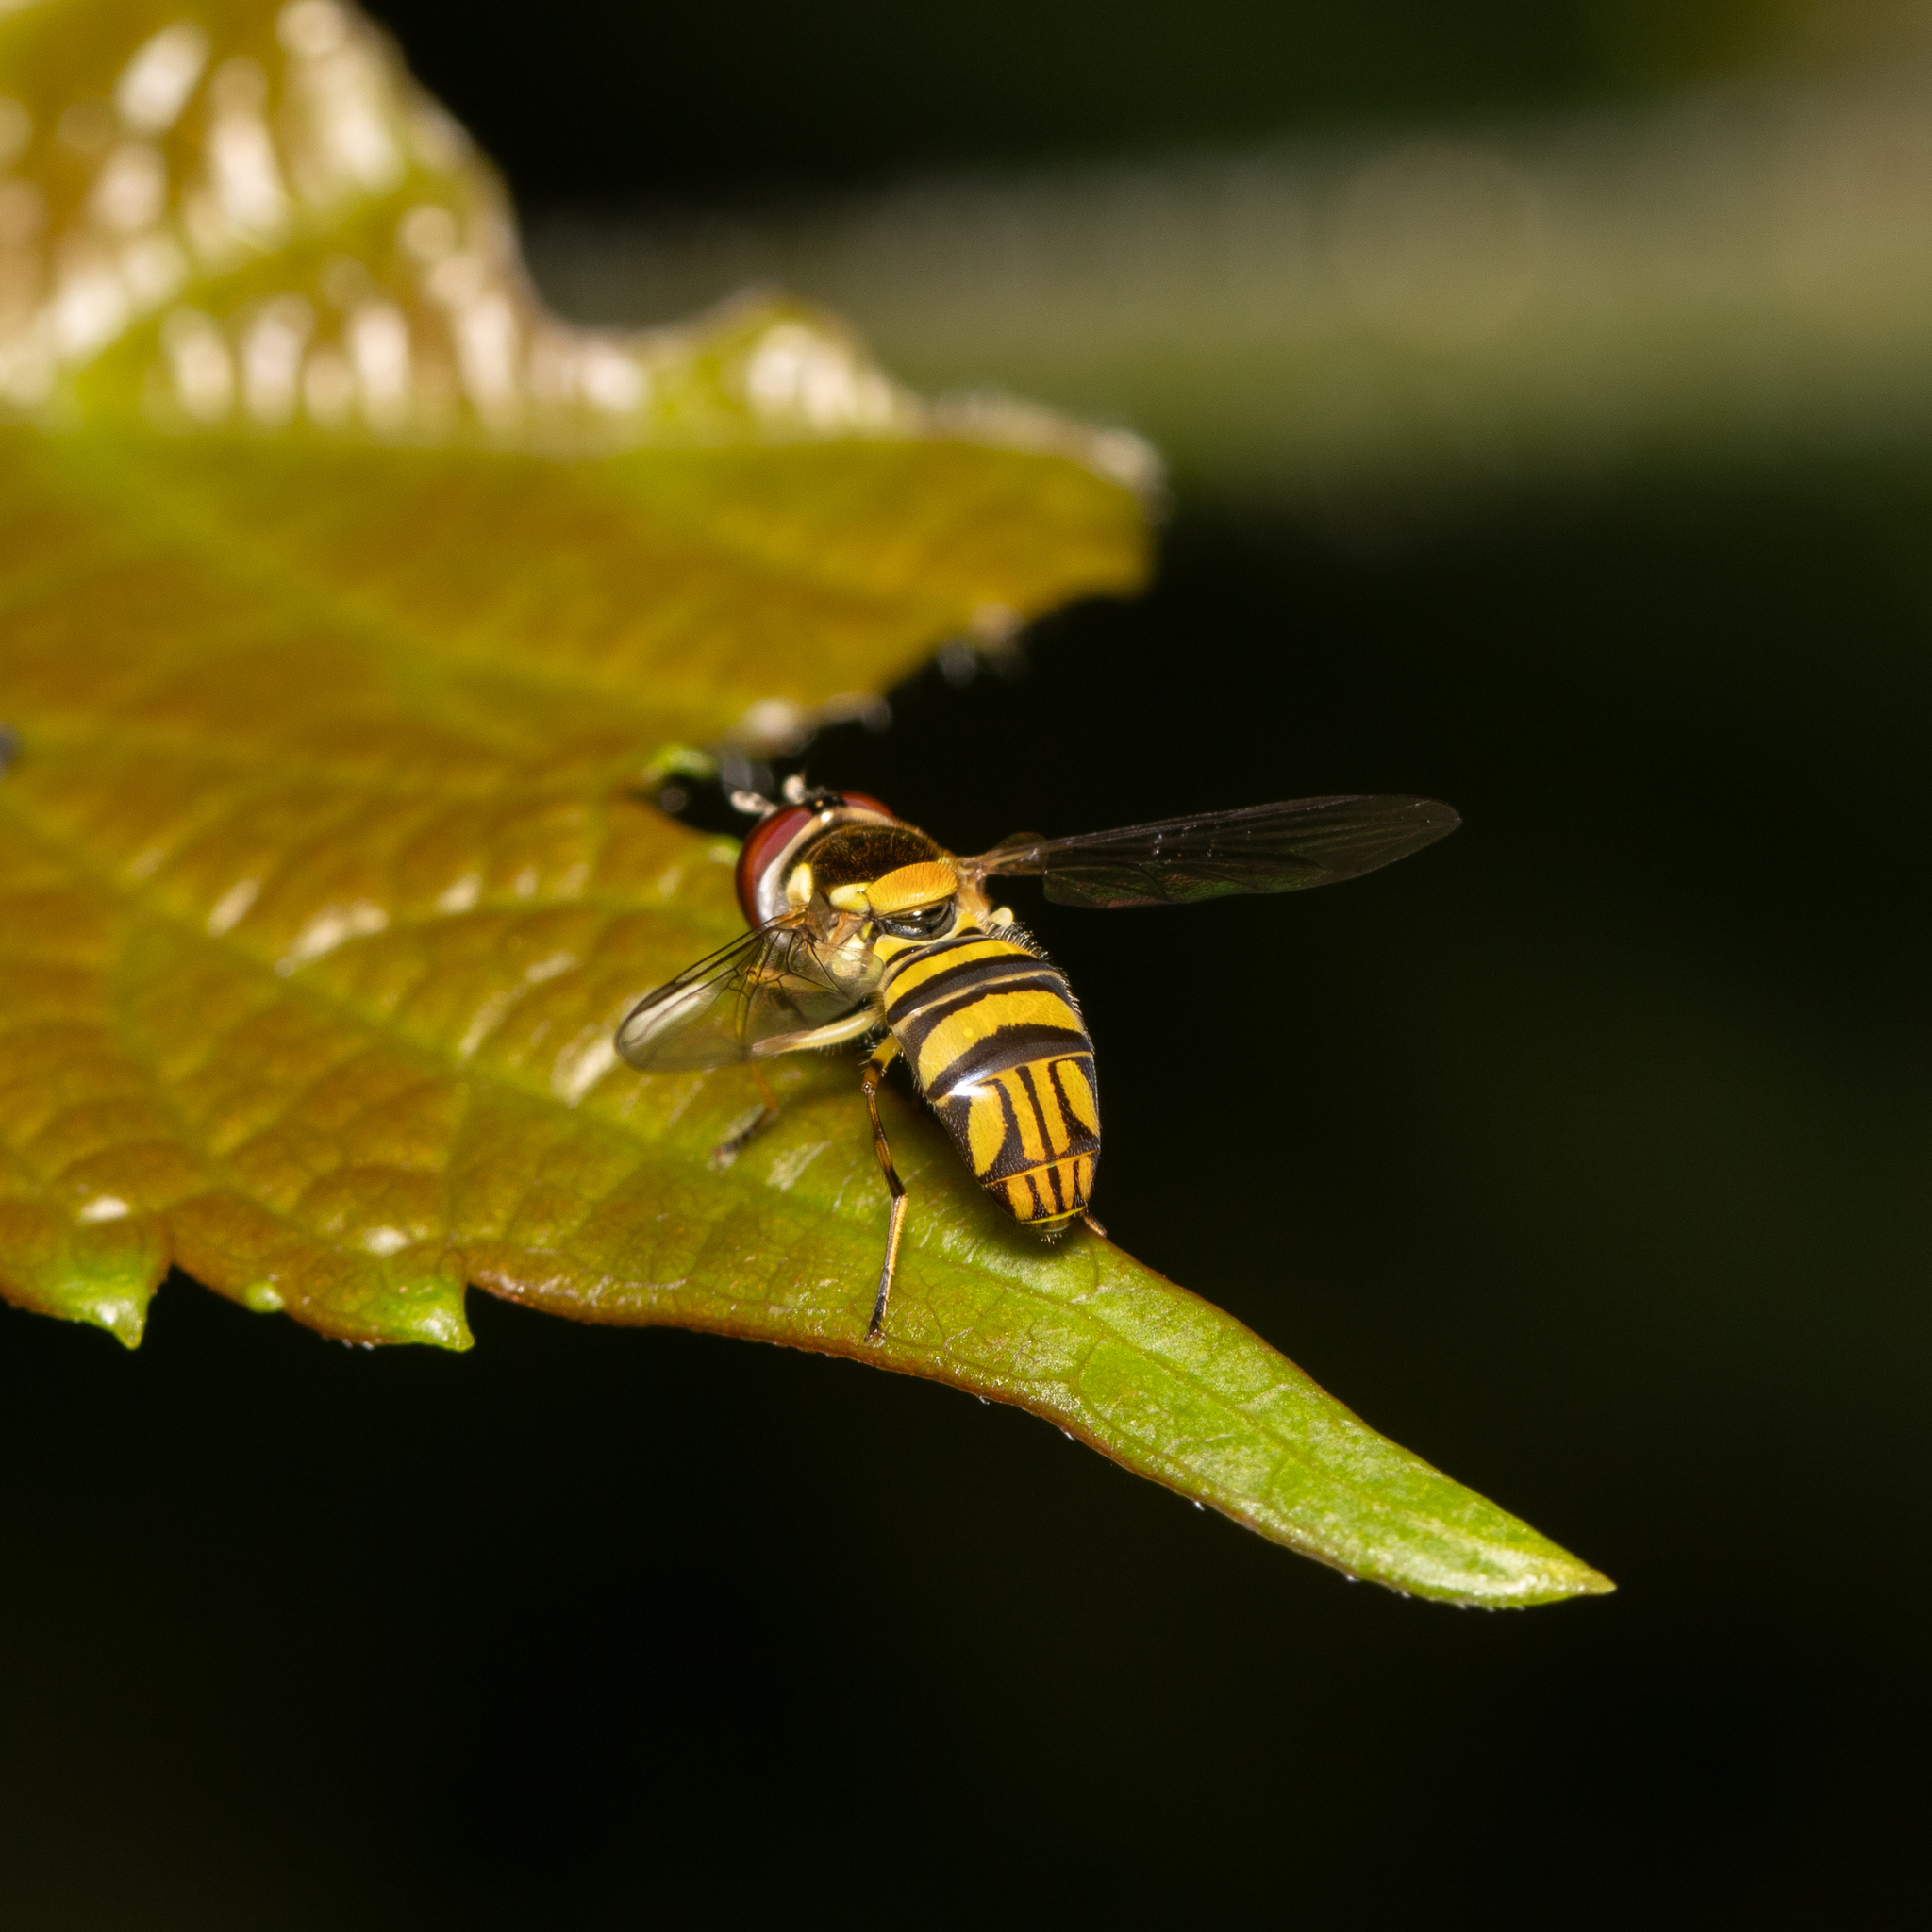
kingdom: Animalia
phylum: Arthropoda
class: Insecta
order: Diptera
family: Syrphidae
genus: Allograpta
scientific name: Allograpta obliqua
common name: Common oblique syrphid
